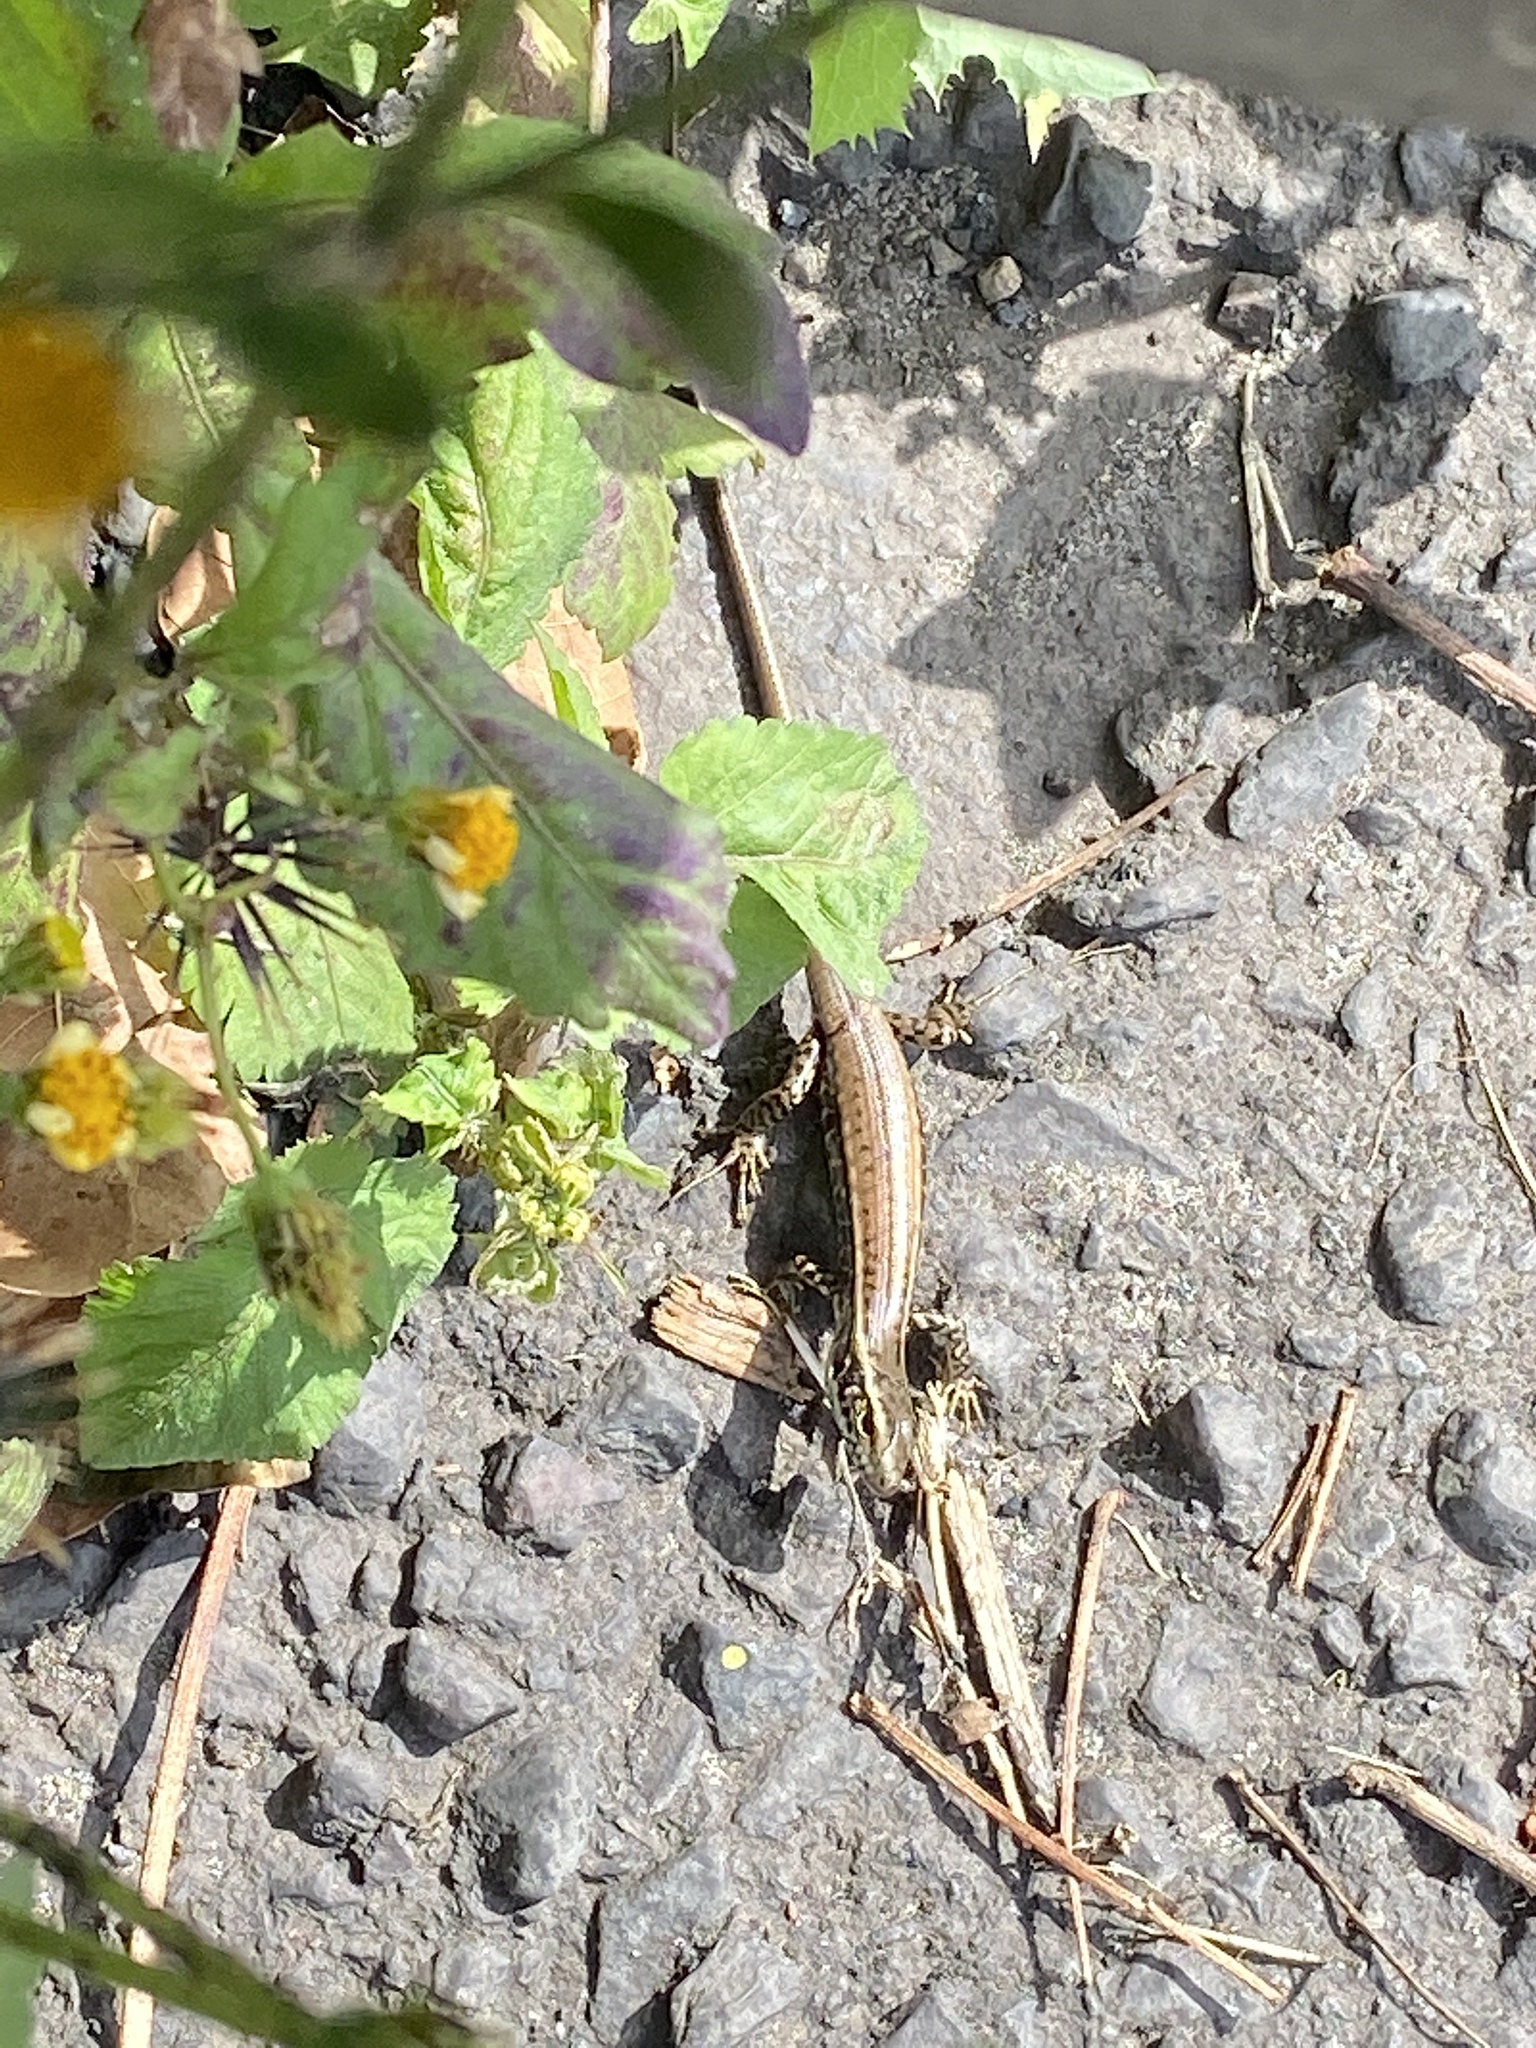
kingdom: Animalia
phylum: Chordata
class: Squamata
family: Scincidae
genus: Eulamprus
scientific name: Eulamprus quoyii
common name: Eastern water skink
